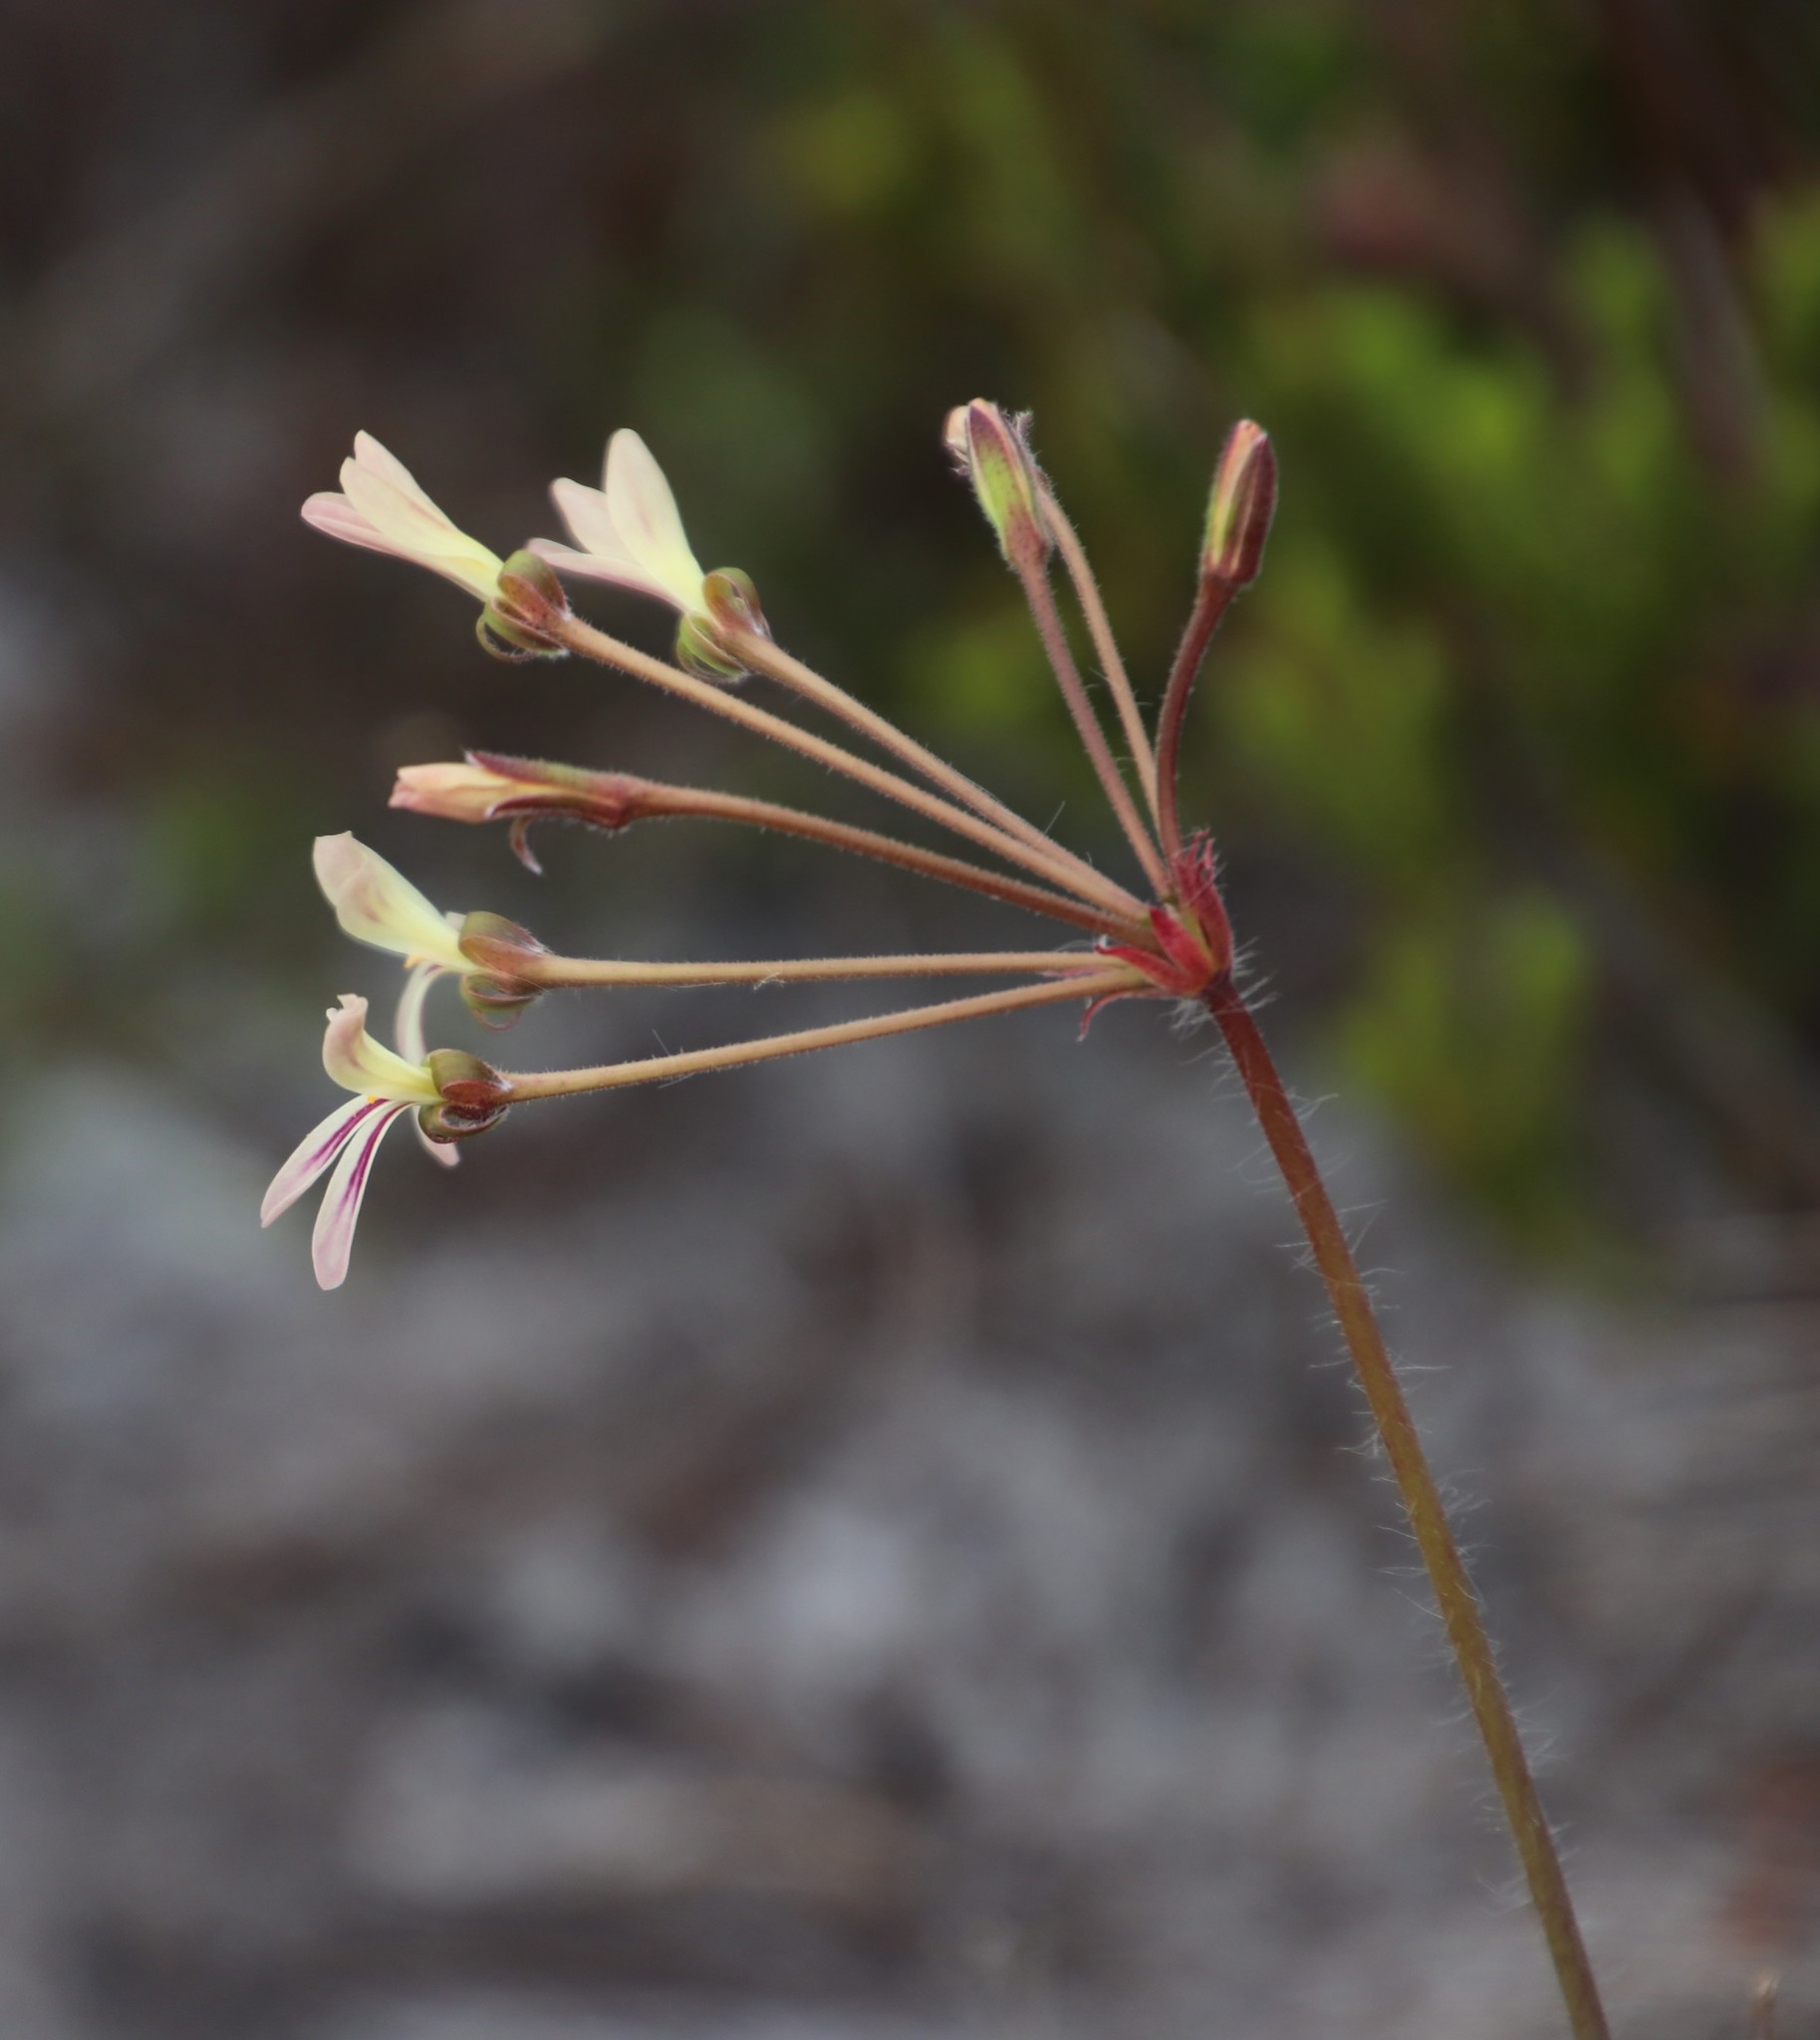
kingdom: Plantae
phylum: Tracheophyta
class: Magnoliopsida
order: Geraniales
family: Geraniaceae
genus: Pelargonium
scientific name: Pelargonium triste
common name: Night-scent pelargonium
